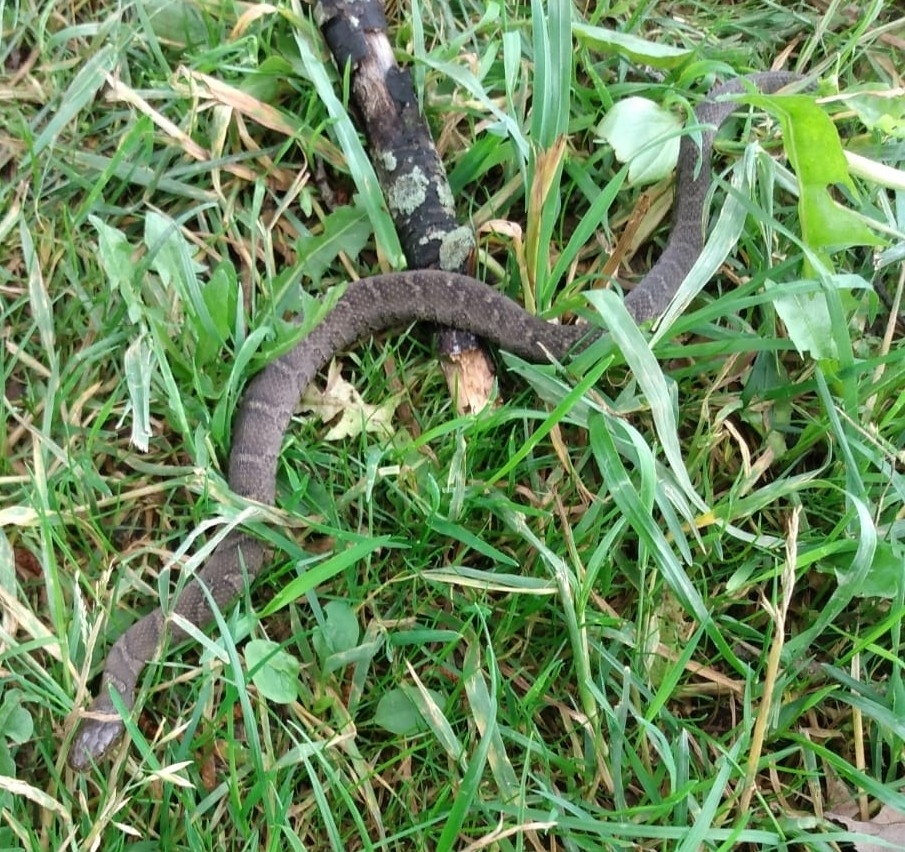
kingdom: Animalia
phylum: Chordata
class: Squamata
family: Colubridae
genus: Nerodia
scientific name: Nerodia sipedon
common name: Northern water snake
